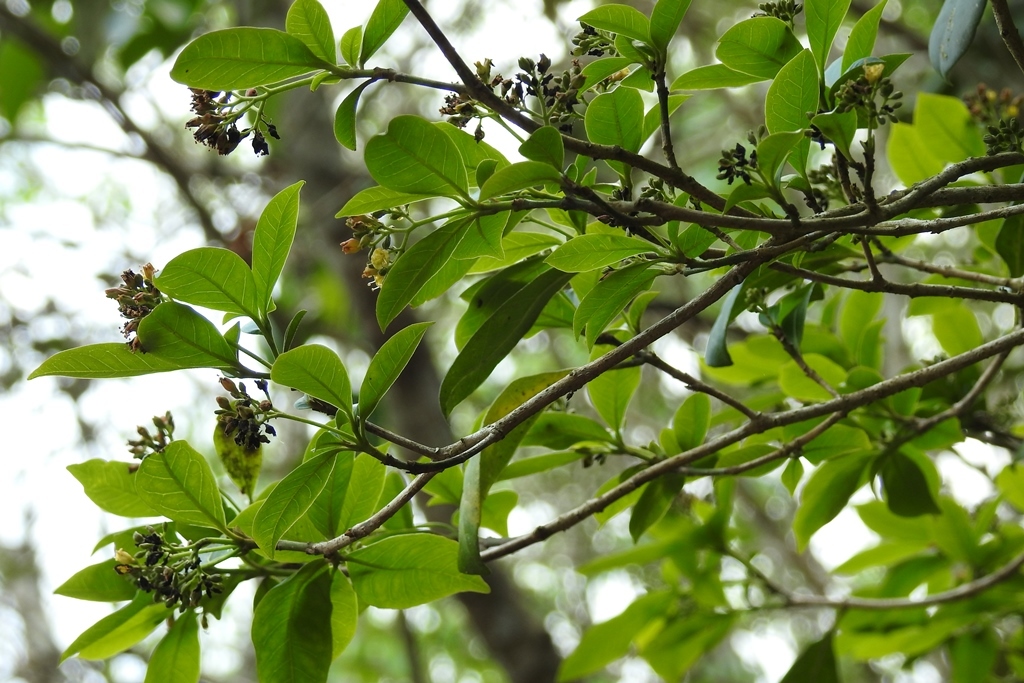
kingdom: Plantae
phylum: Tracheophyta
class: Magnoliopsida
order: Caryophyllales
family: Nyctaginaceae
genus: Neea
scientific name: Neea tenuis
